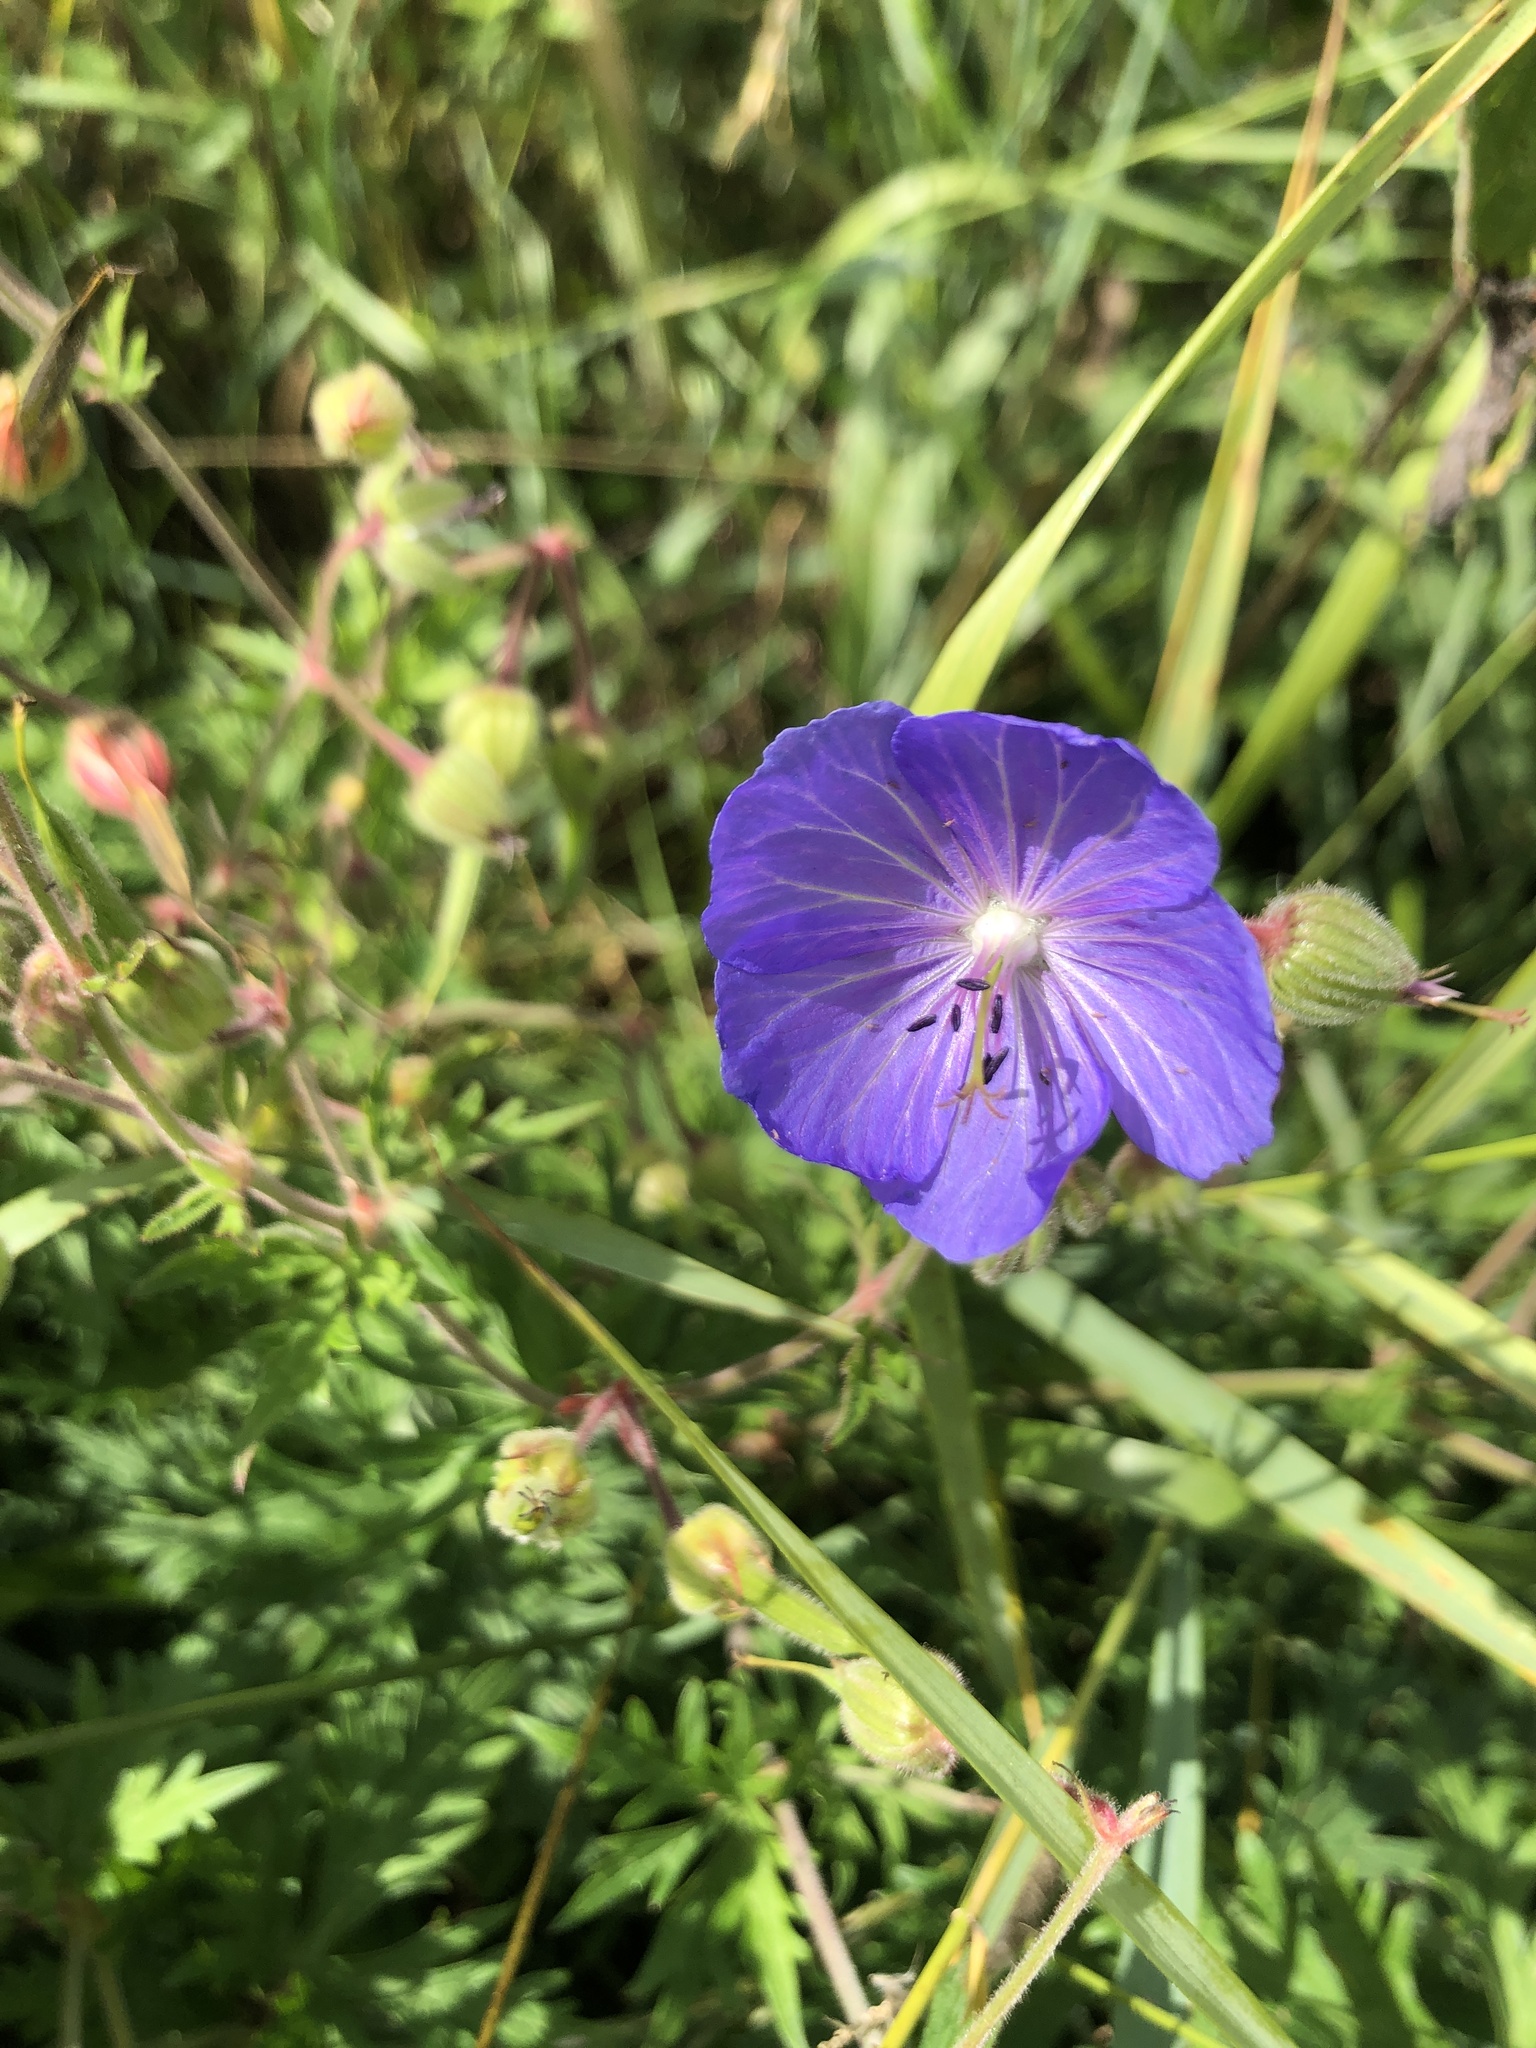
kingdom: Plantae
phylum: Tracheophyta
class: Magnoliopsida
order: Geraniales
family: Geraniaceae
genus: Geranium
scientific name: Geranium pratense
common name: Meadow crane's-bill
